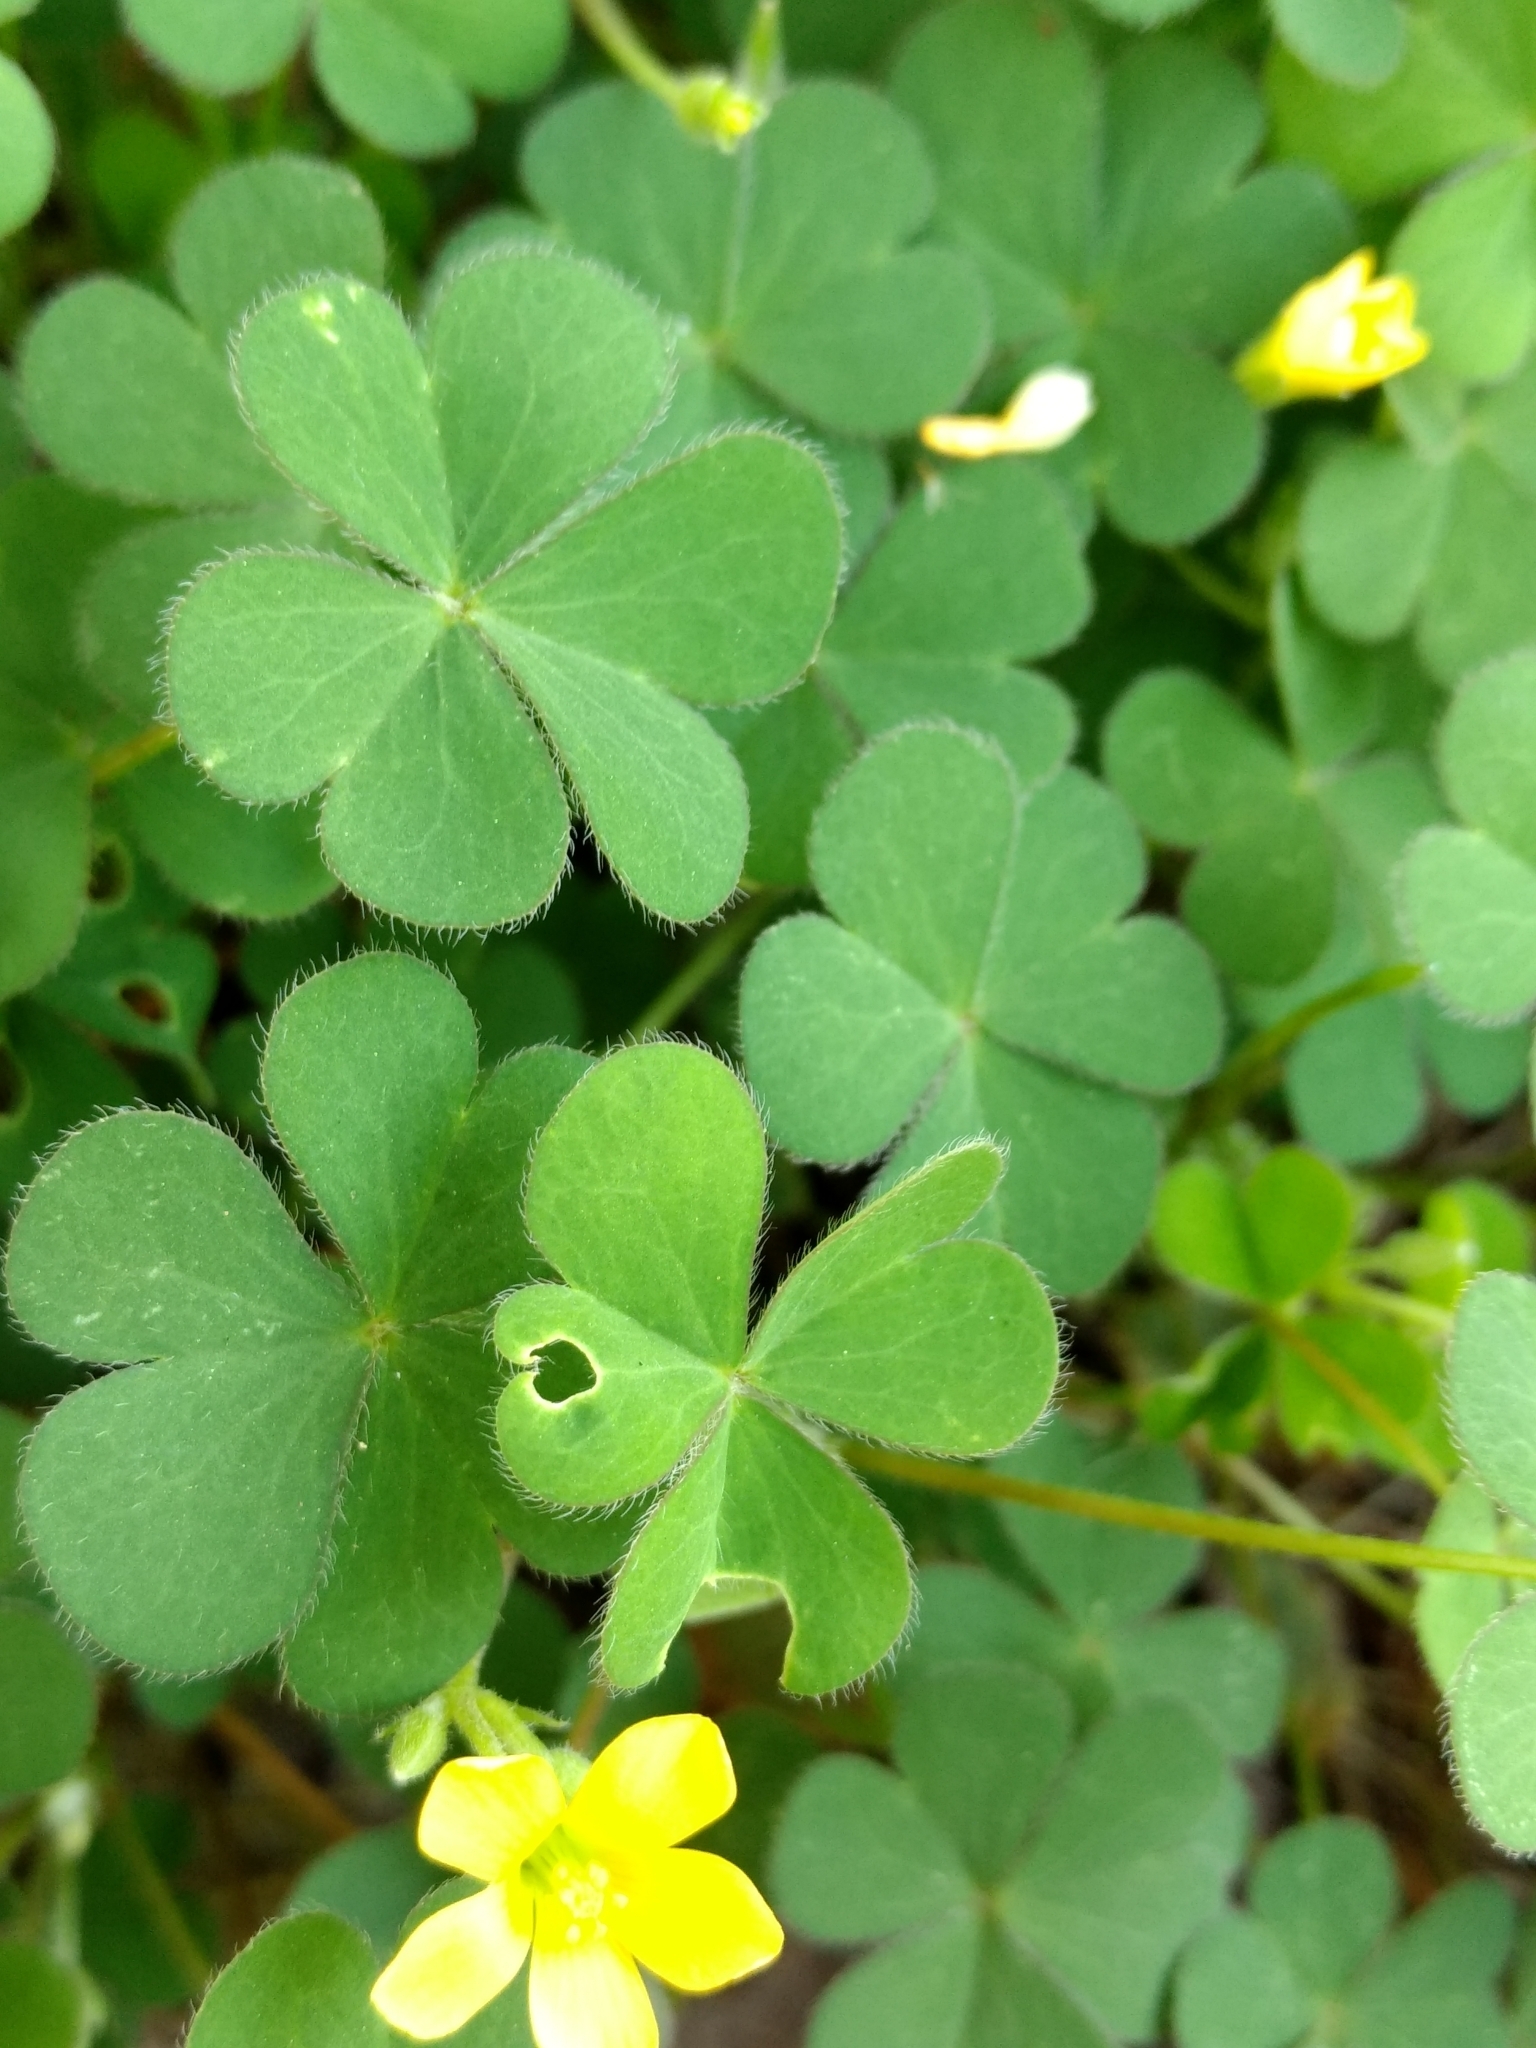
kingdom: Plantae
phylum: Tracheophyta
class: Magnoliopsida
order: Oxalidales
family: Oxalidaceae
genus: Oxalis
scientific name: Oxalis corniculata
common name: Procumbent yellow-sorrel
